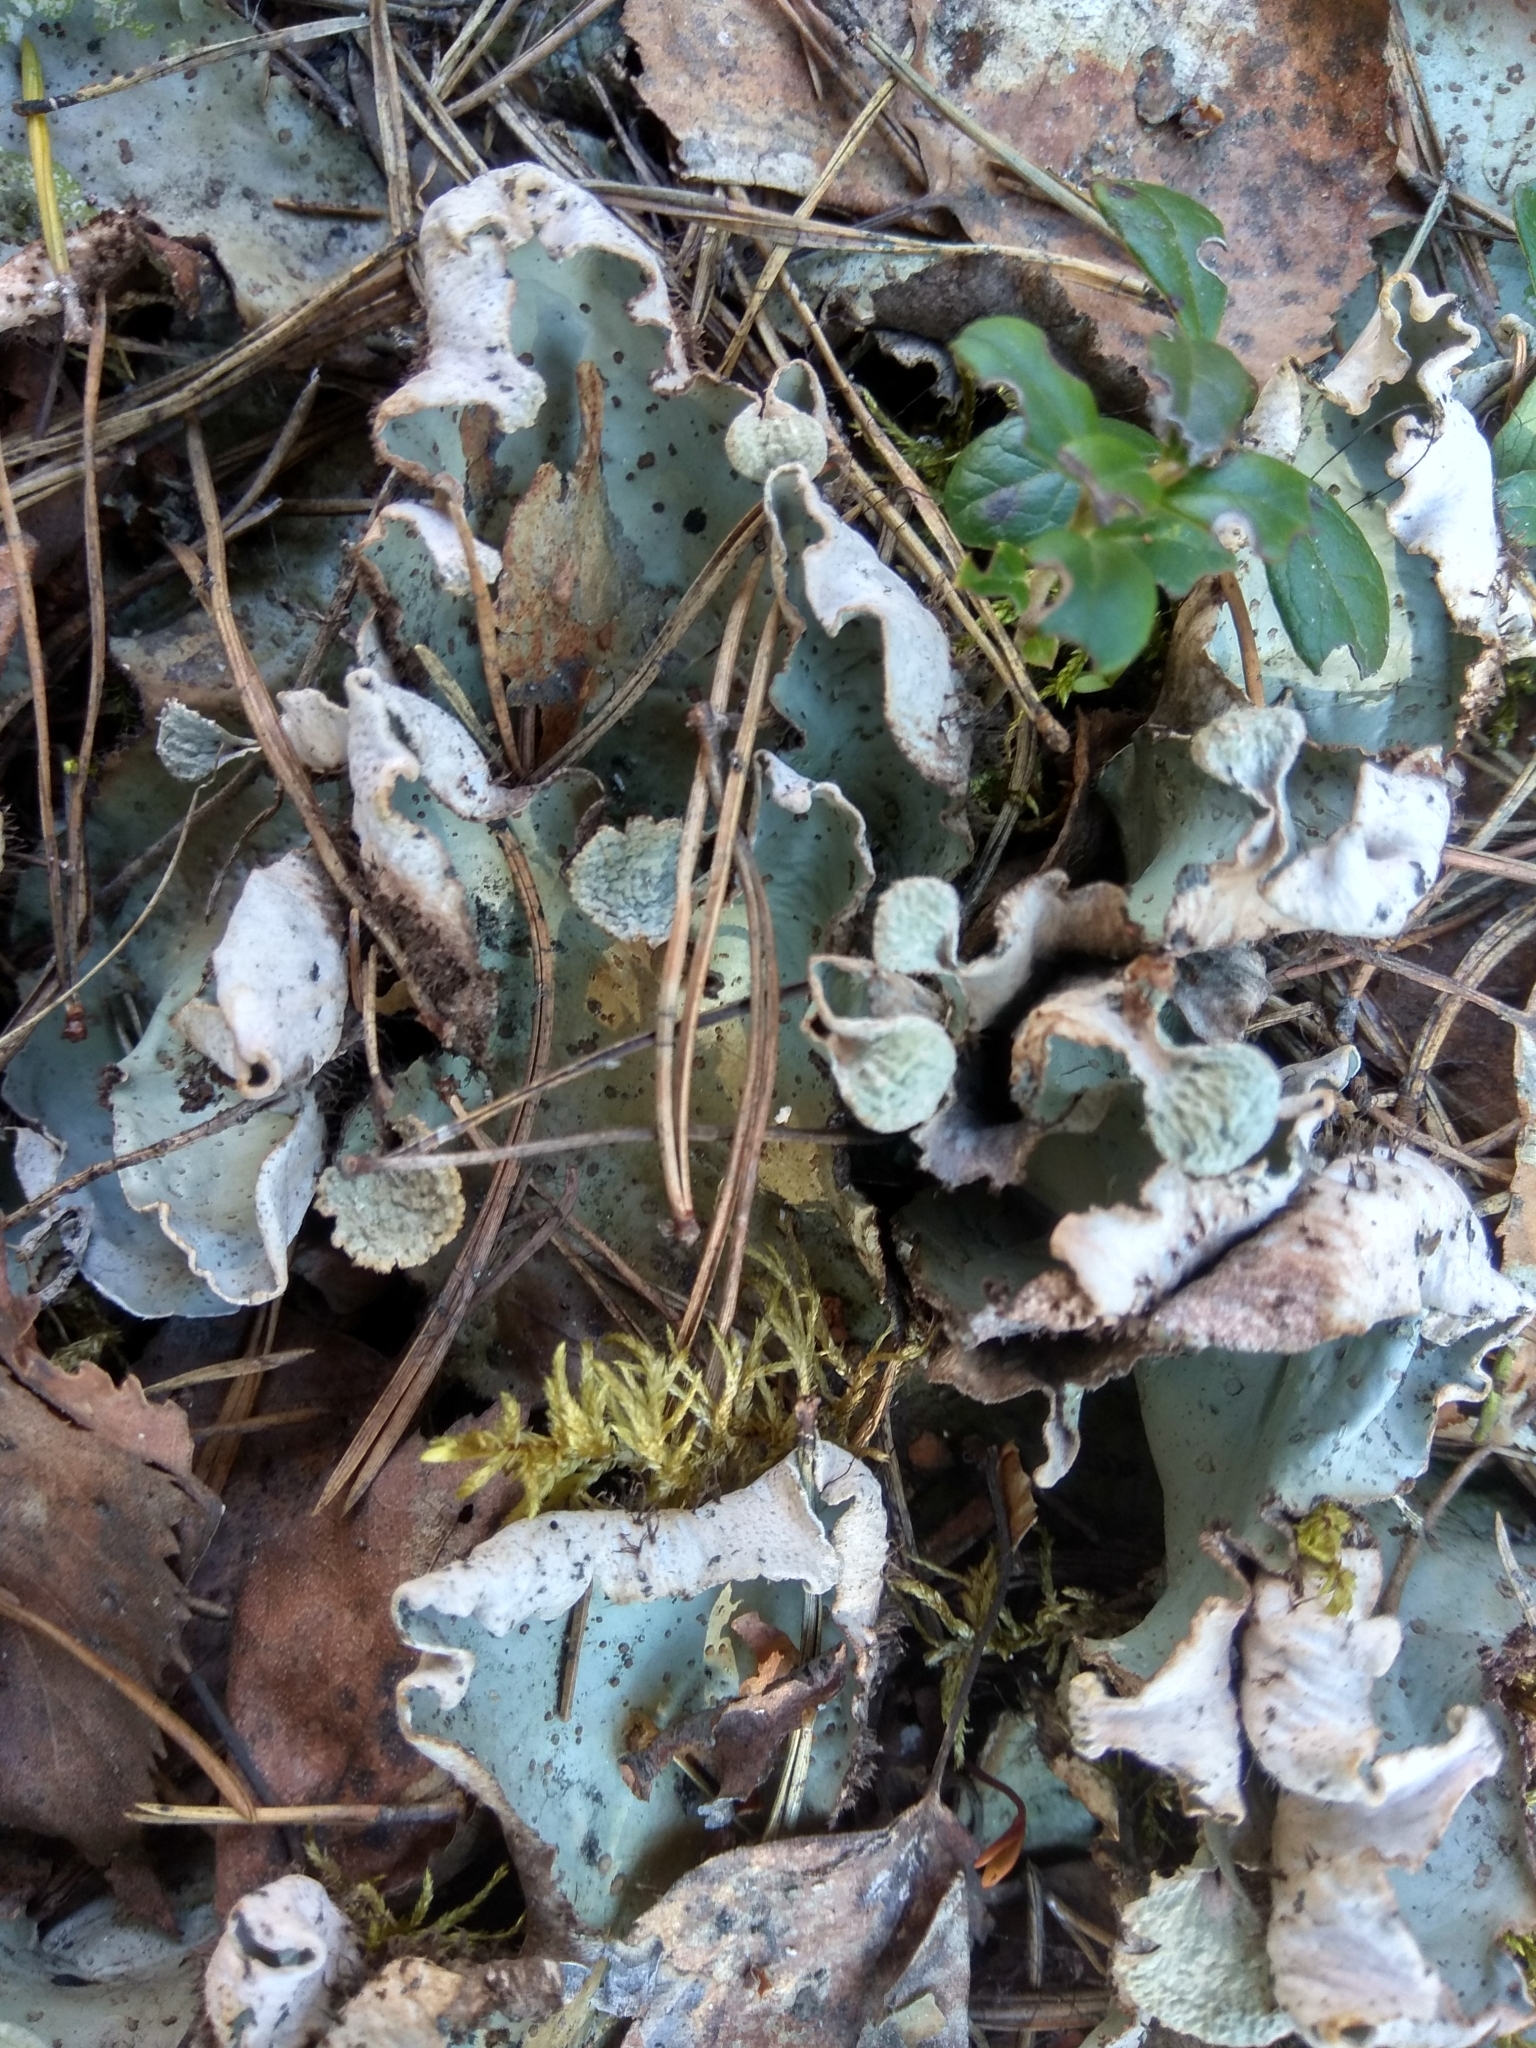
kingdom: Fungi
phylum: Ascomycota
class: Lecanoromycetes
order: Peltigerales
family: Peltigeraceae
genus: Peltigera
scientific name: Peltigera aphthosa
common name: Common freckle pelt lichen
